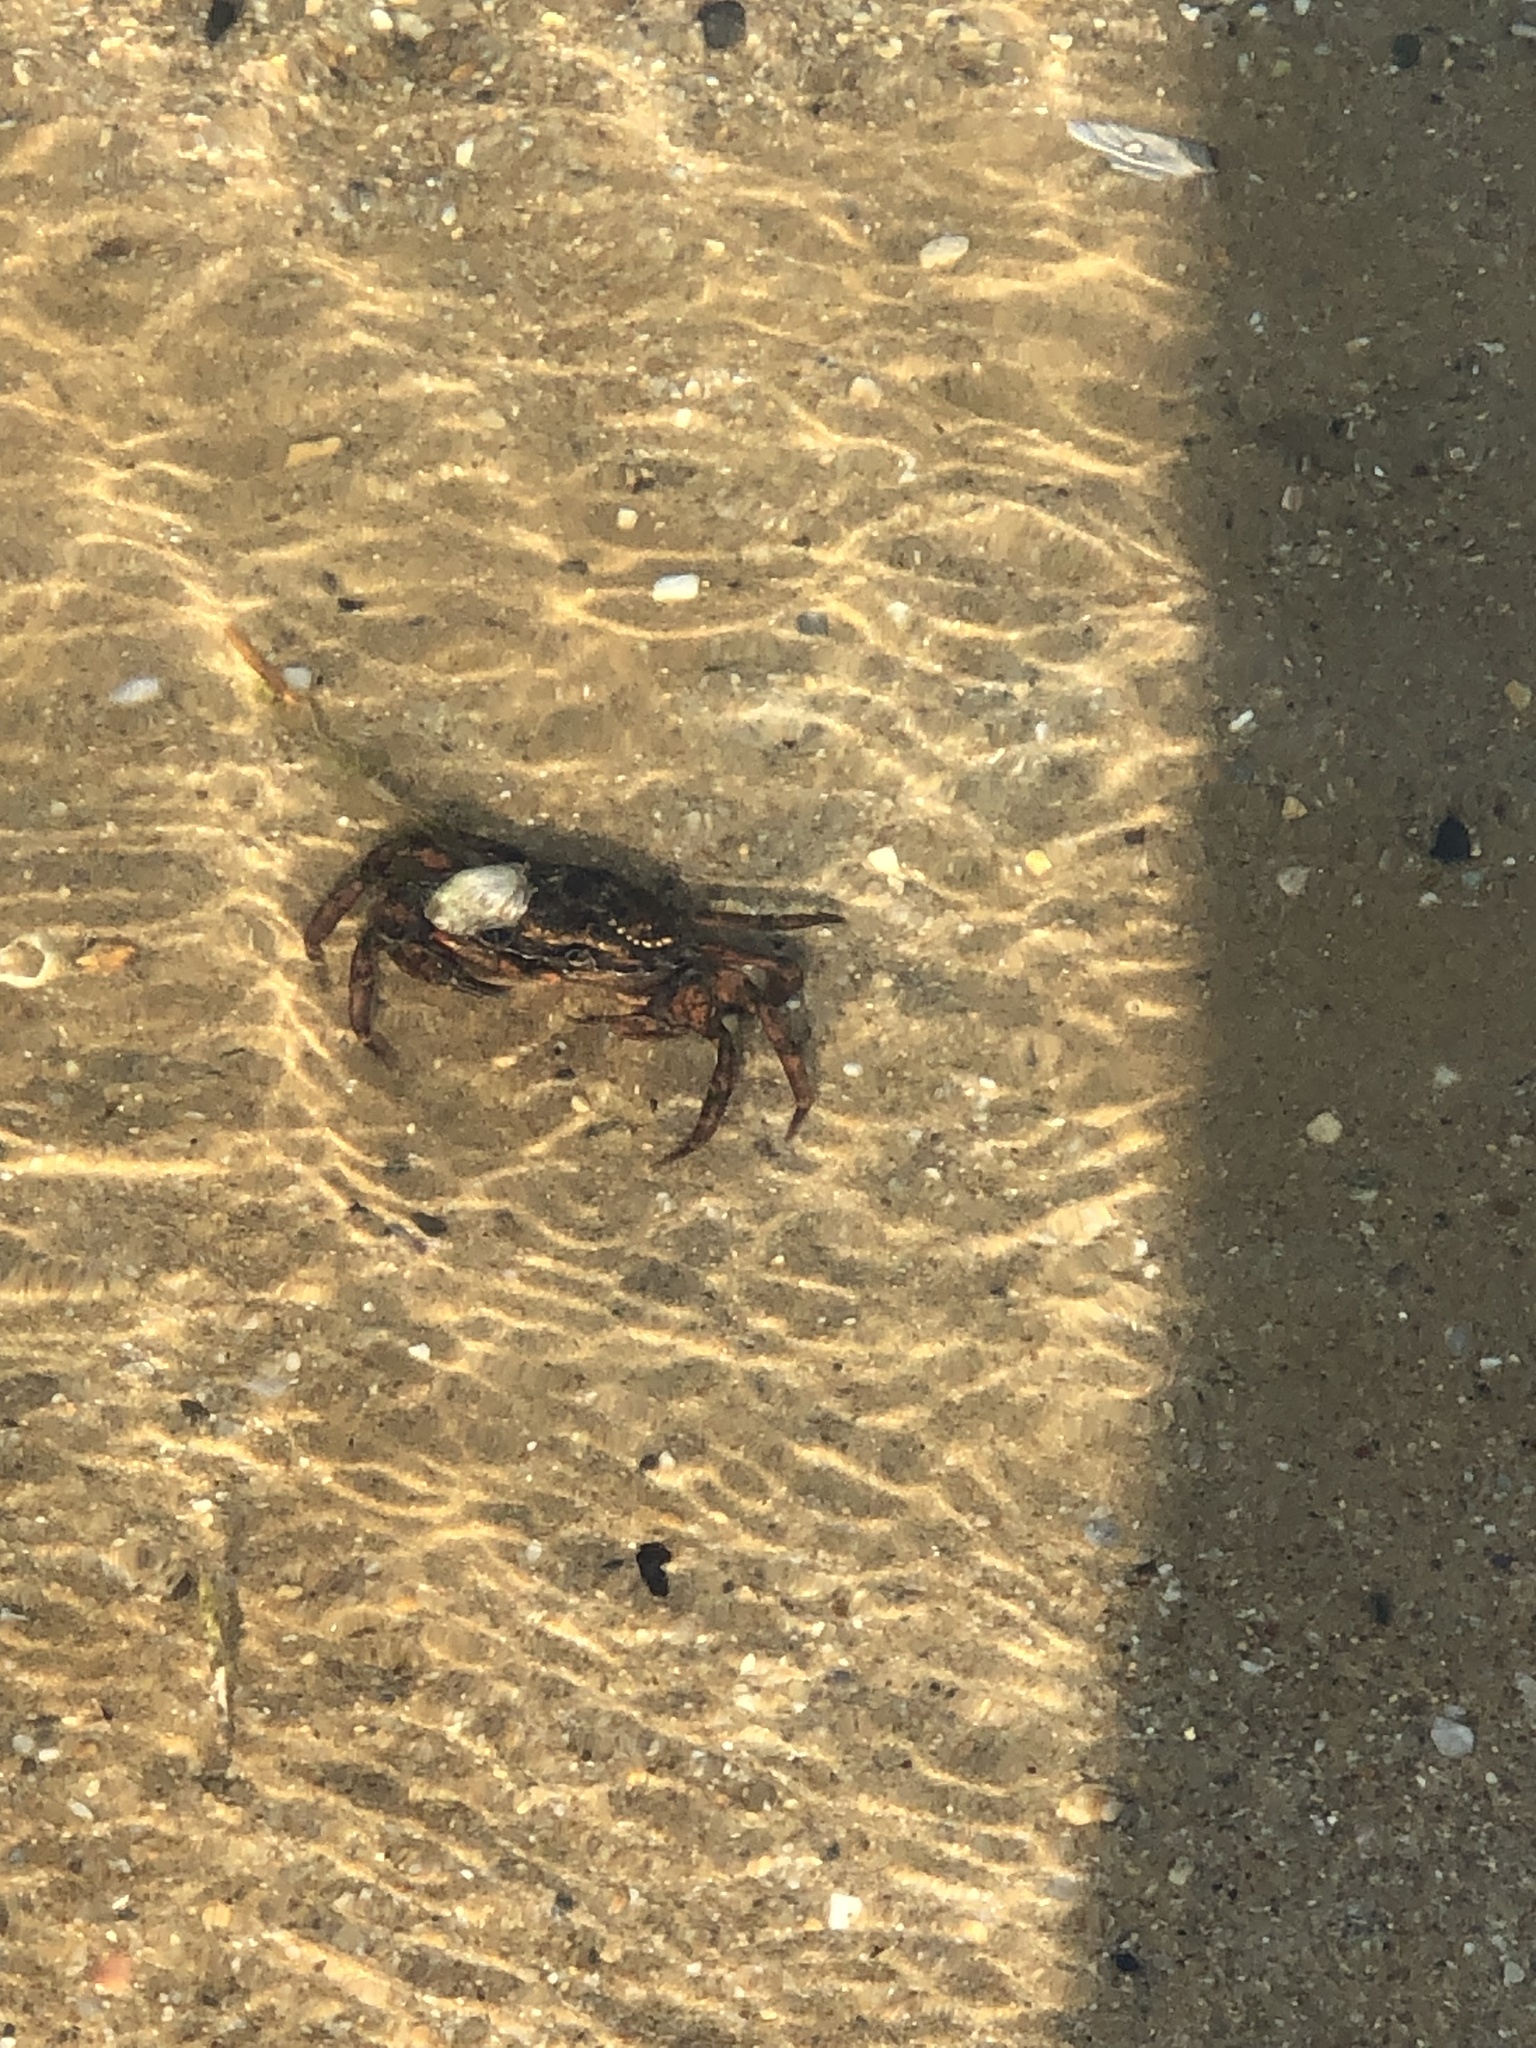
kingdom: Animalia
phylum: Arthropoda
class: Malacostraca
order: Decapoda
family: Carcinidae
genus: Carcinus
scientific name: Carcinus maenas
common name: European green crab
